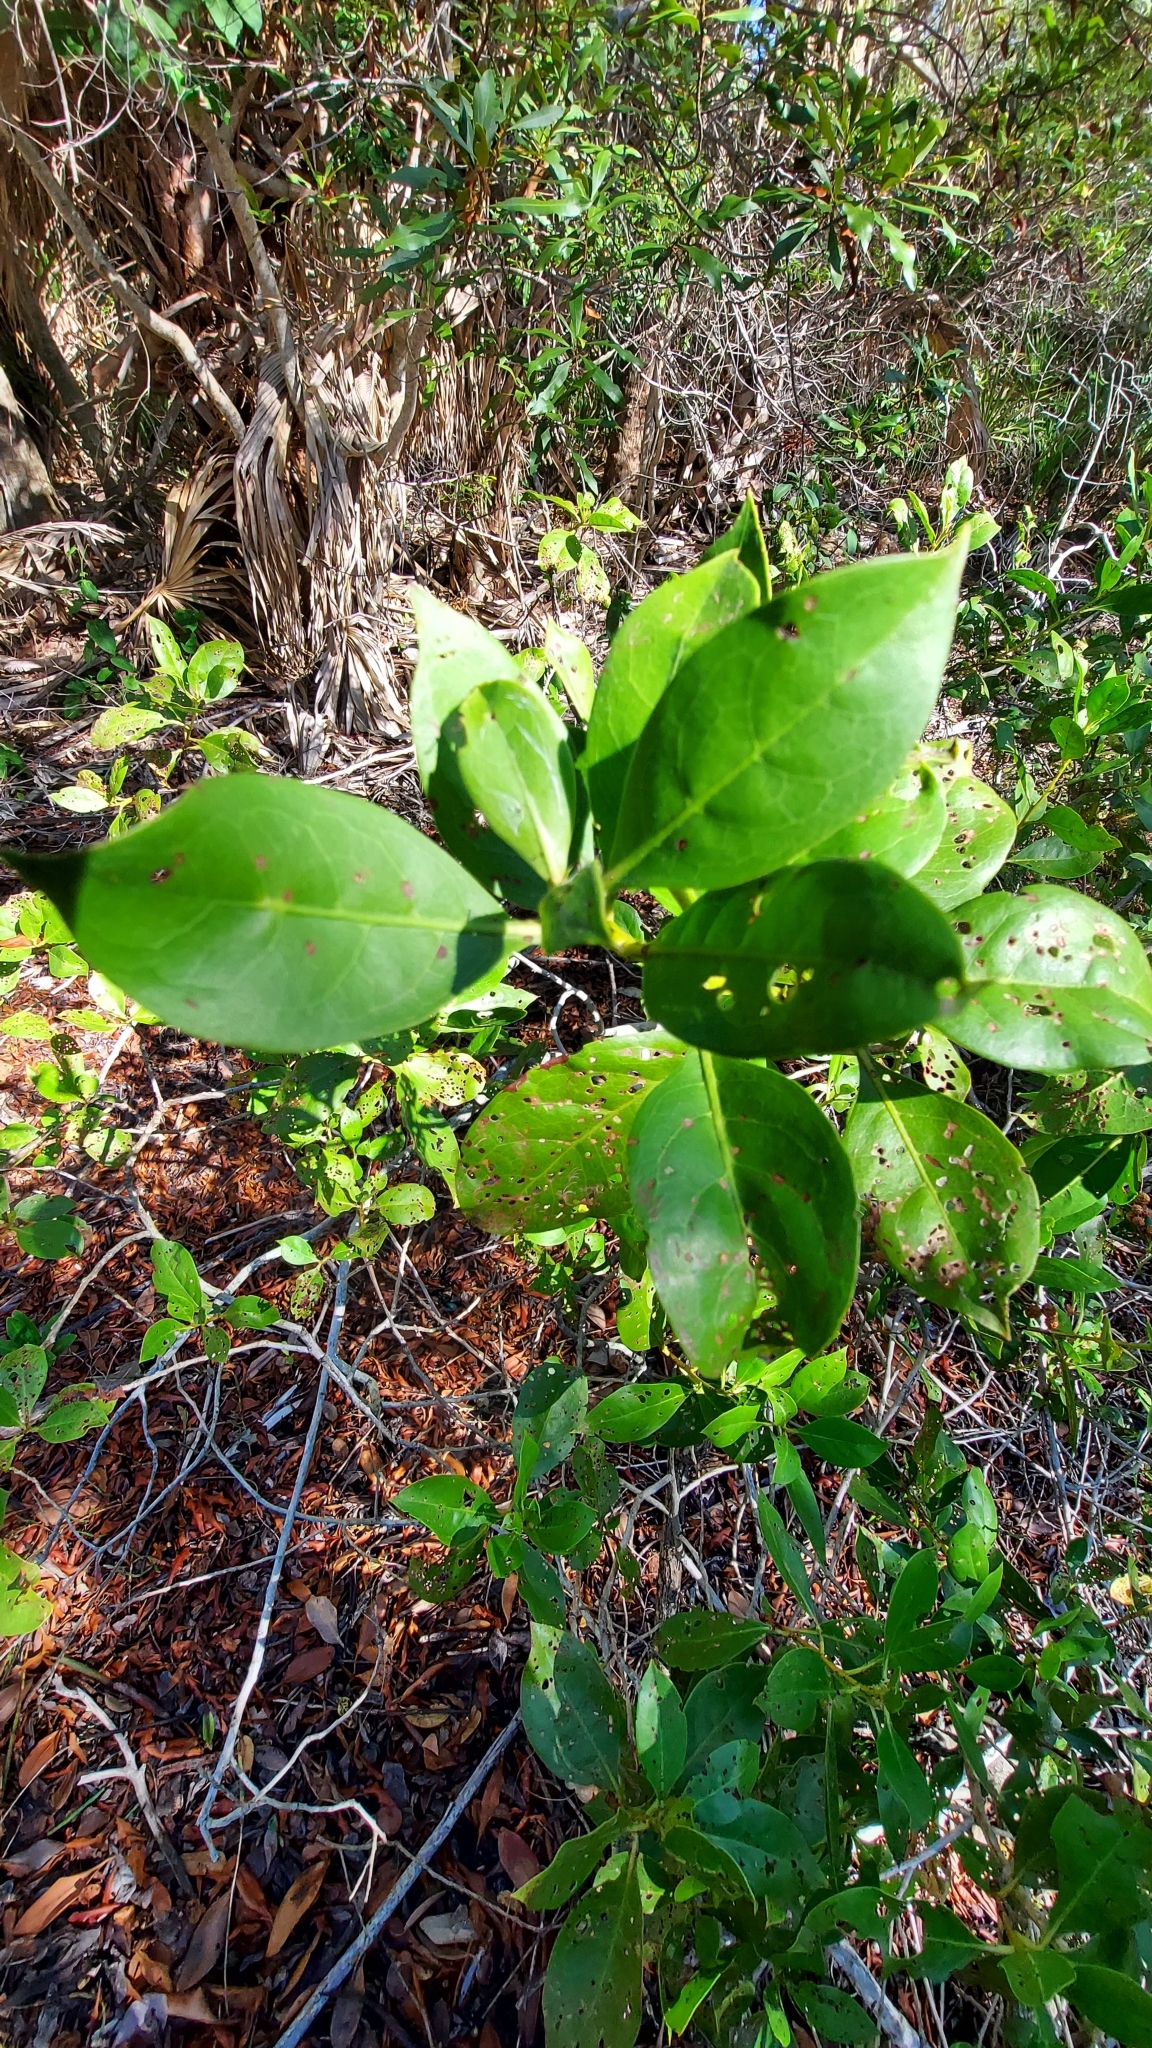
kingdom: Plantae
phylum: Tracheophyta
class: Magnoliopsida
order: Myrtales
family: Combretaceae
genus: Conocarpus
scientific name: Conocarpus erectus
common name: Button mangrove
